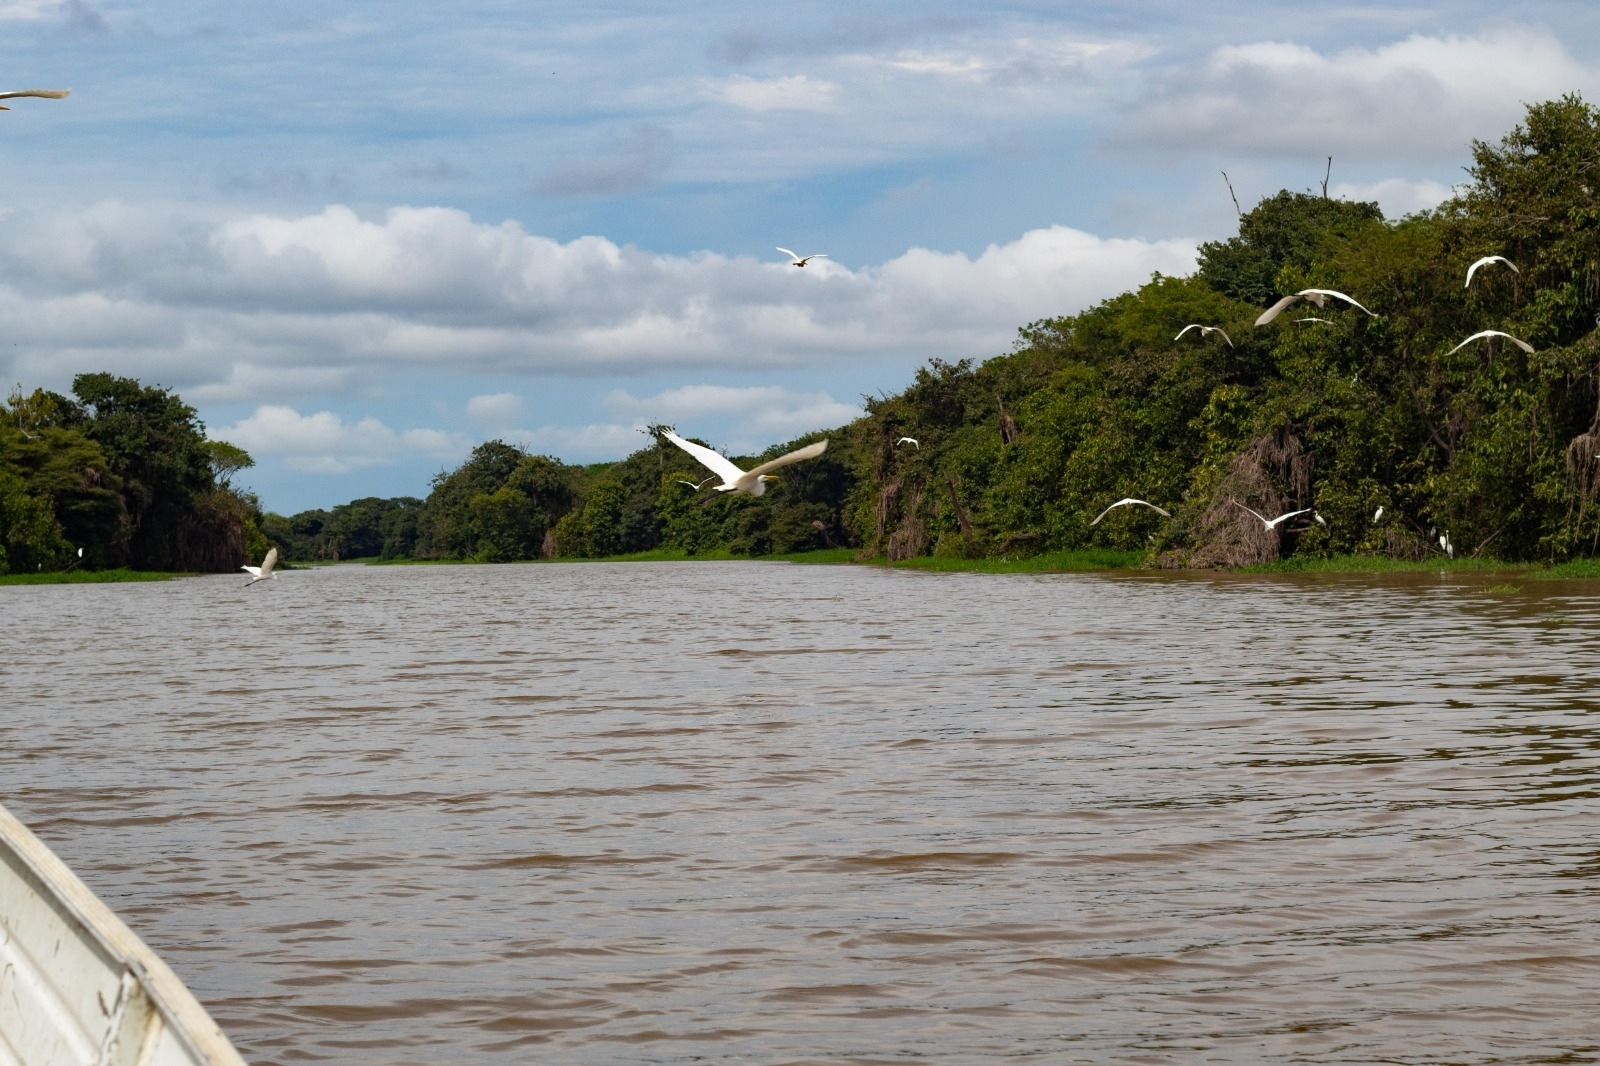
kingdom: Animalia
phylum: Chordata
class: Aves
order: Pelecaniformes
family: Ardeidae
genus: Ardea
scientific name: Ardea alba
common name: Great egret
